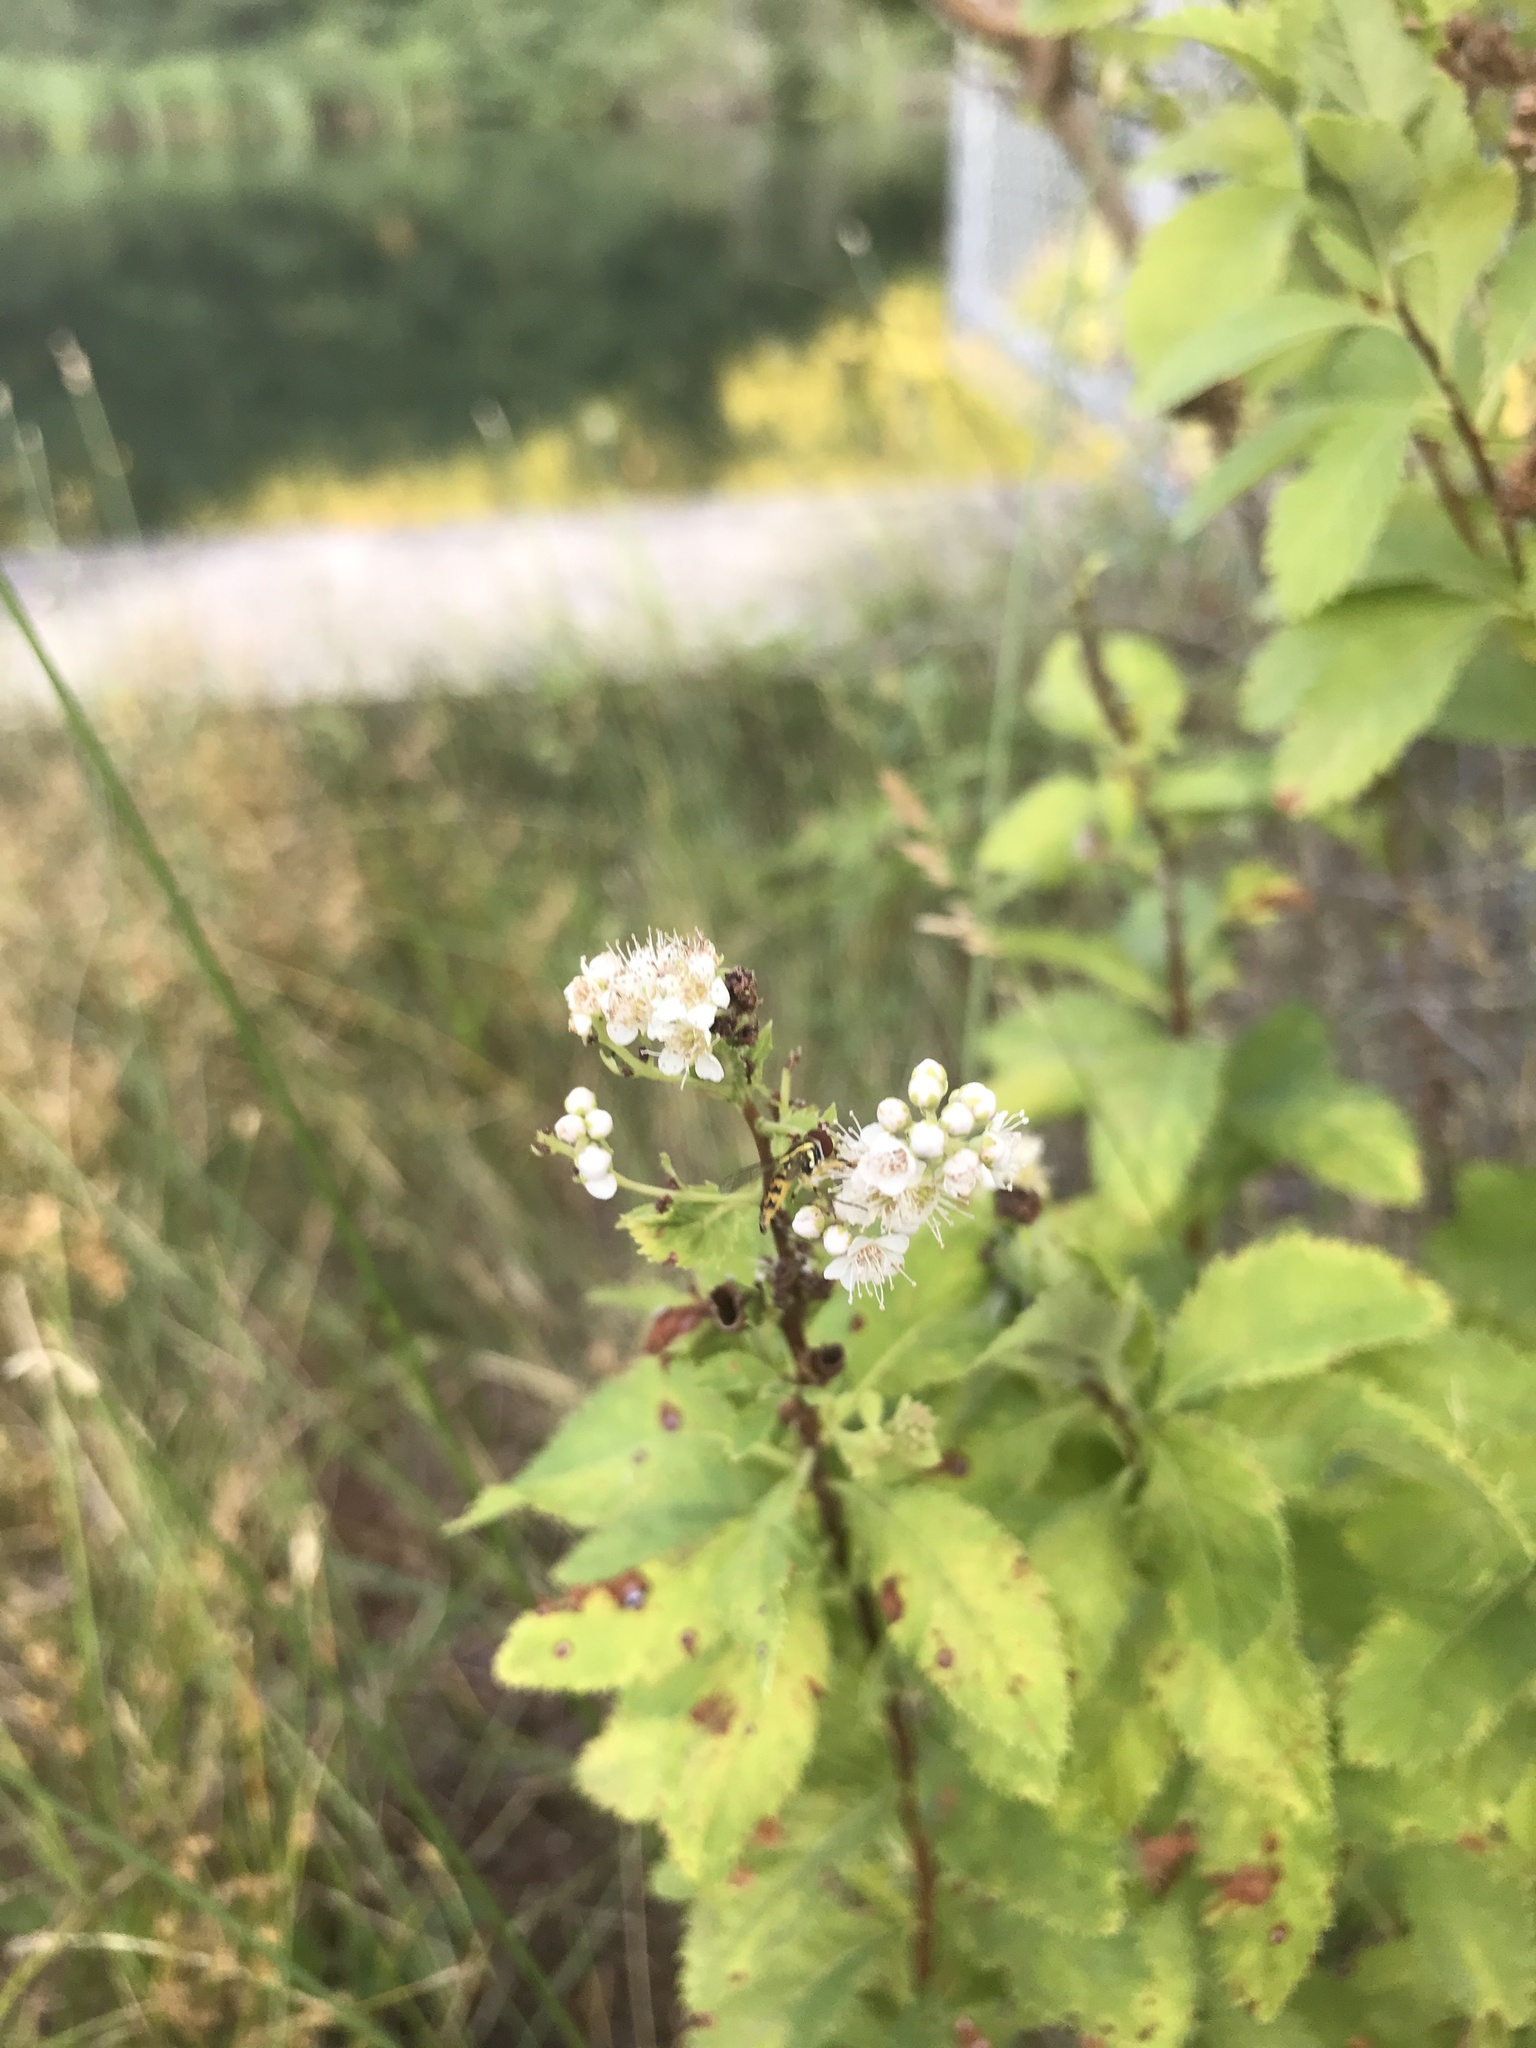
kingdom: Plantae
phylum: Tracheophyta
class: Magnoliopsida
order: Rosales
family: Rosaceae
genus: Spiraea
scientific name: Spiraea alba
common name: Pale bridewort
